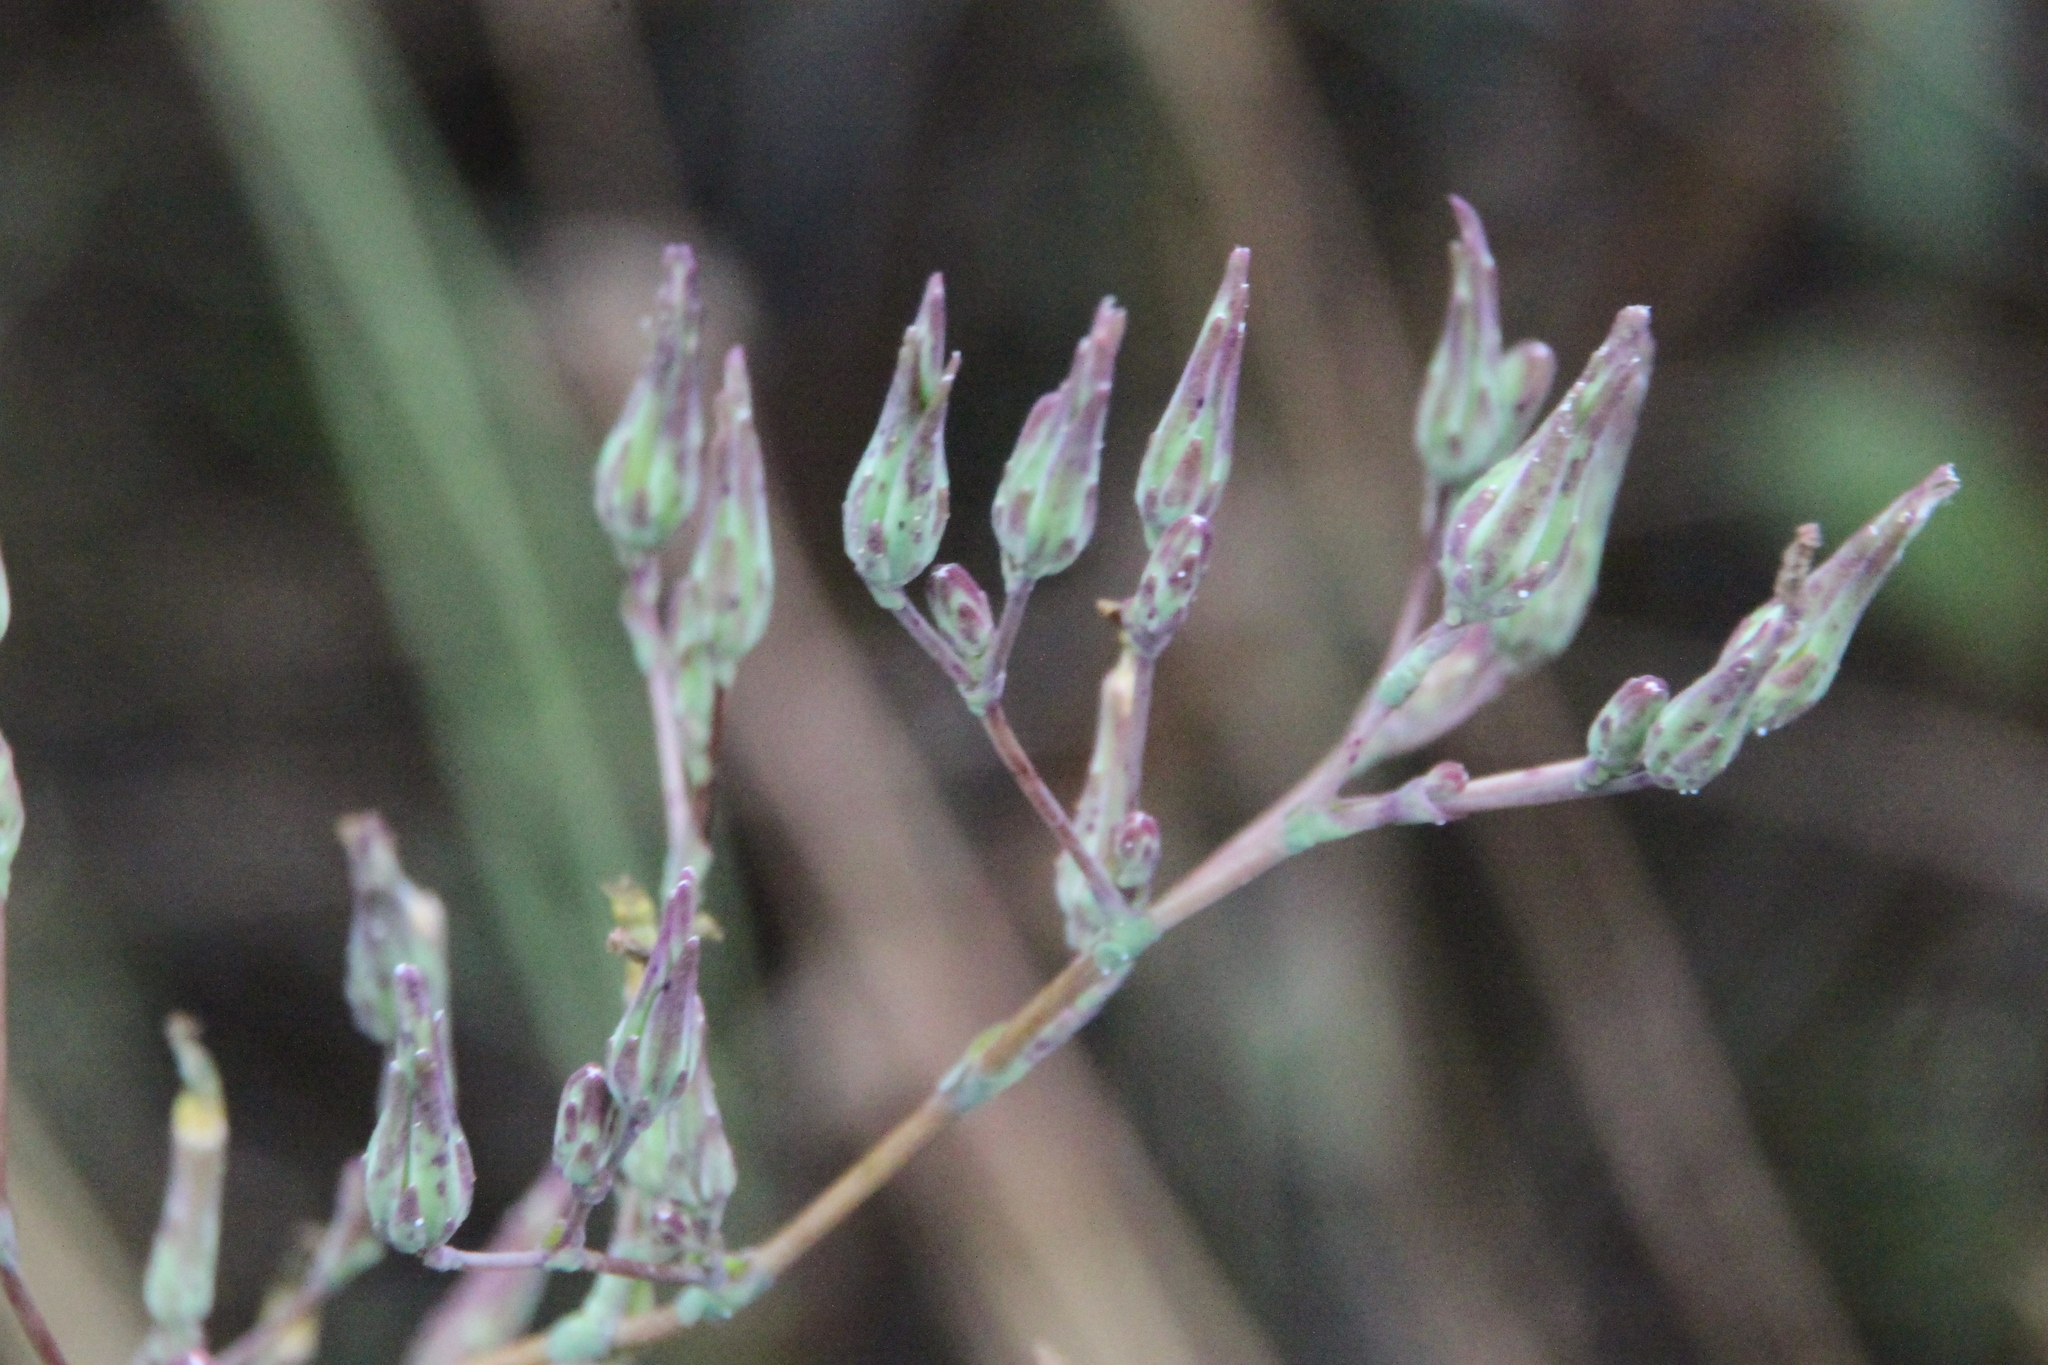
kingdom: Plantae
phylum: Tracheophyta
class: Magnoliopsida
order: Asterales
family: Asteraceae
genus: Lactuca
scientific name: Lactuca serriola
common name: Prickly lettuce
